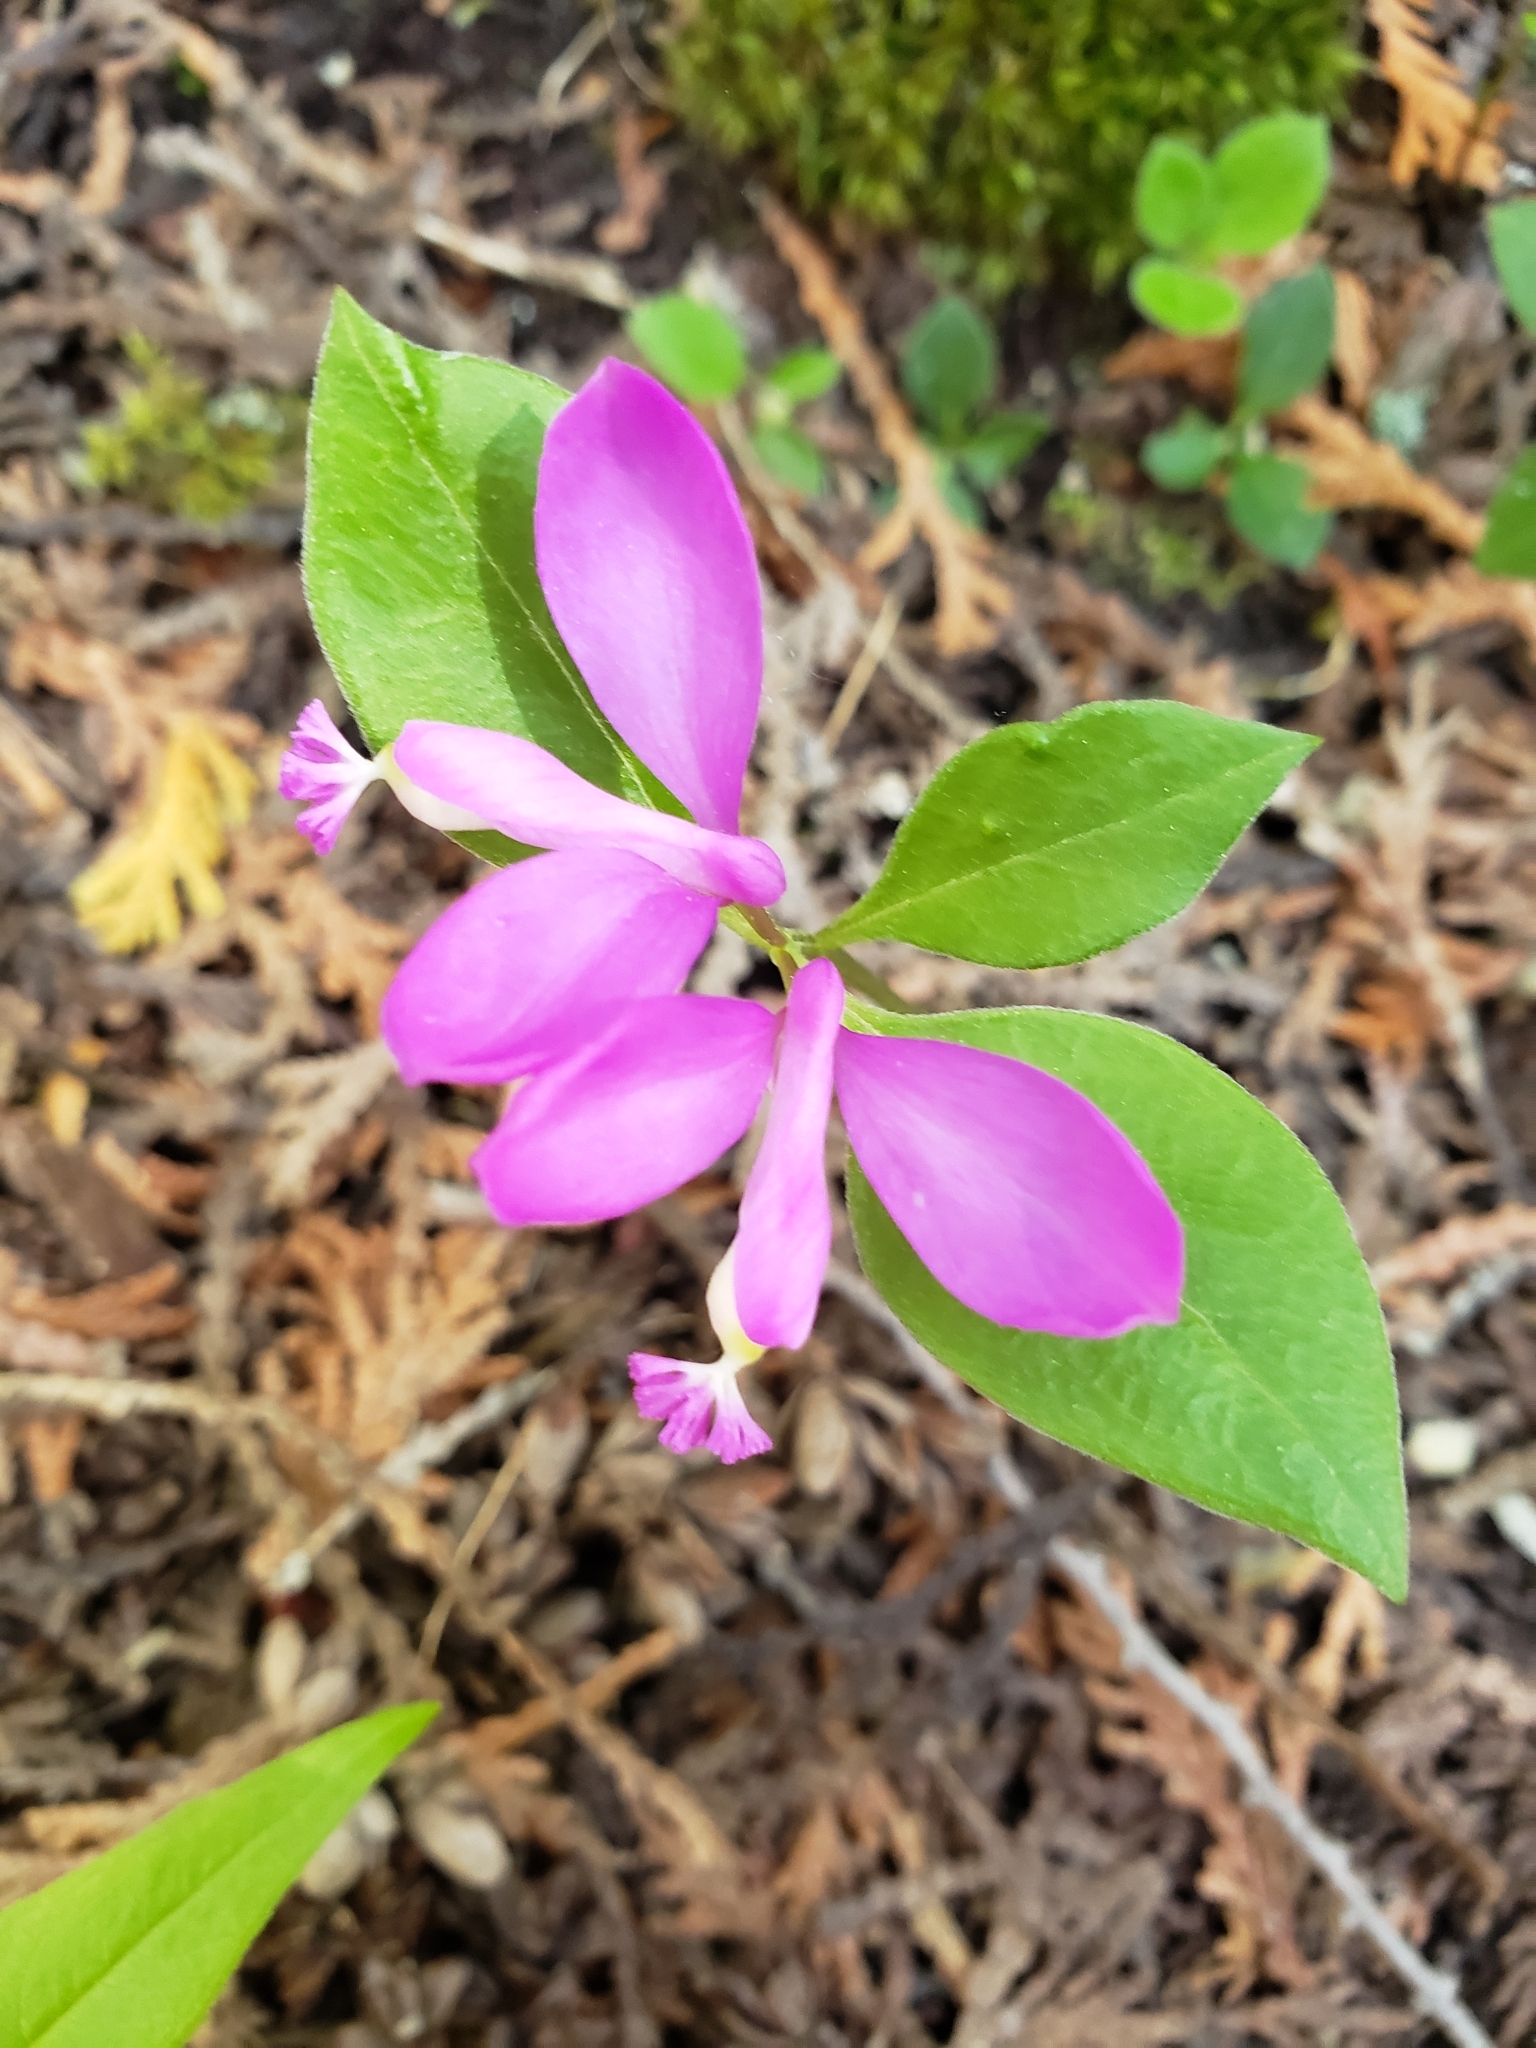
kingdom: Plantae
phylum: Tracheophyta
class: Magnoliopsida
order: Fabales
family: Polygalaceae
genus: Polygaloides
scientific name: Polygaloides paucifolia
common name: Bird-on-the-wing
